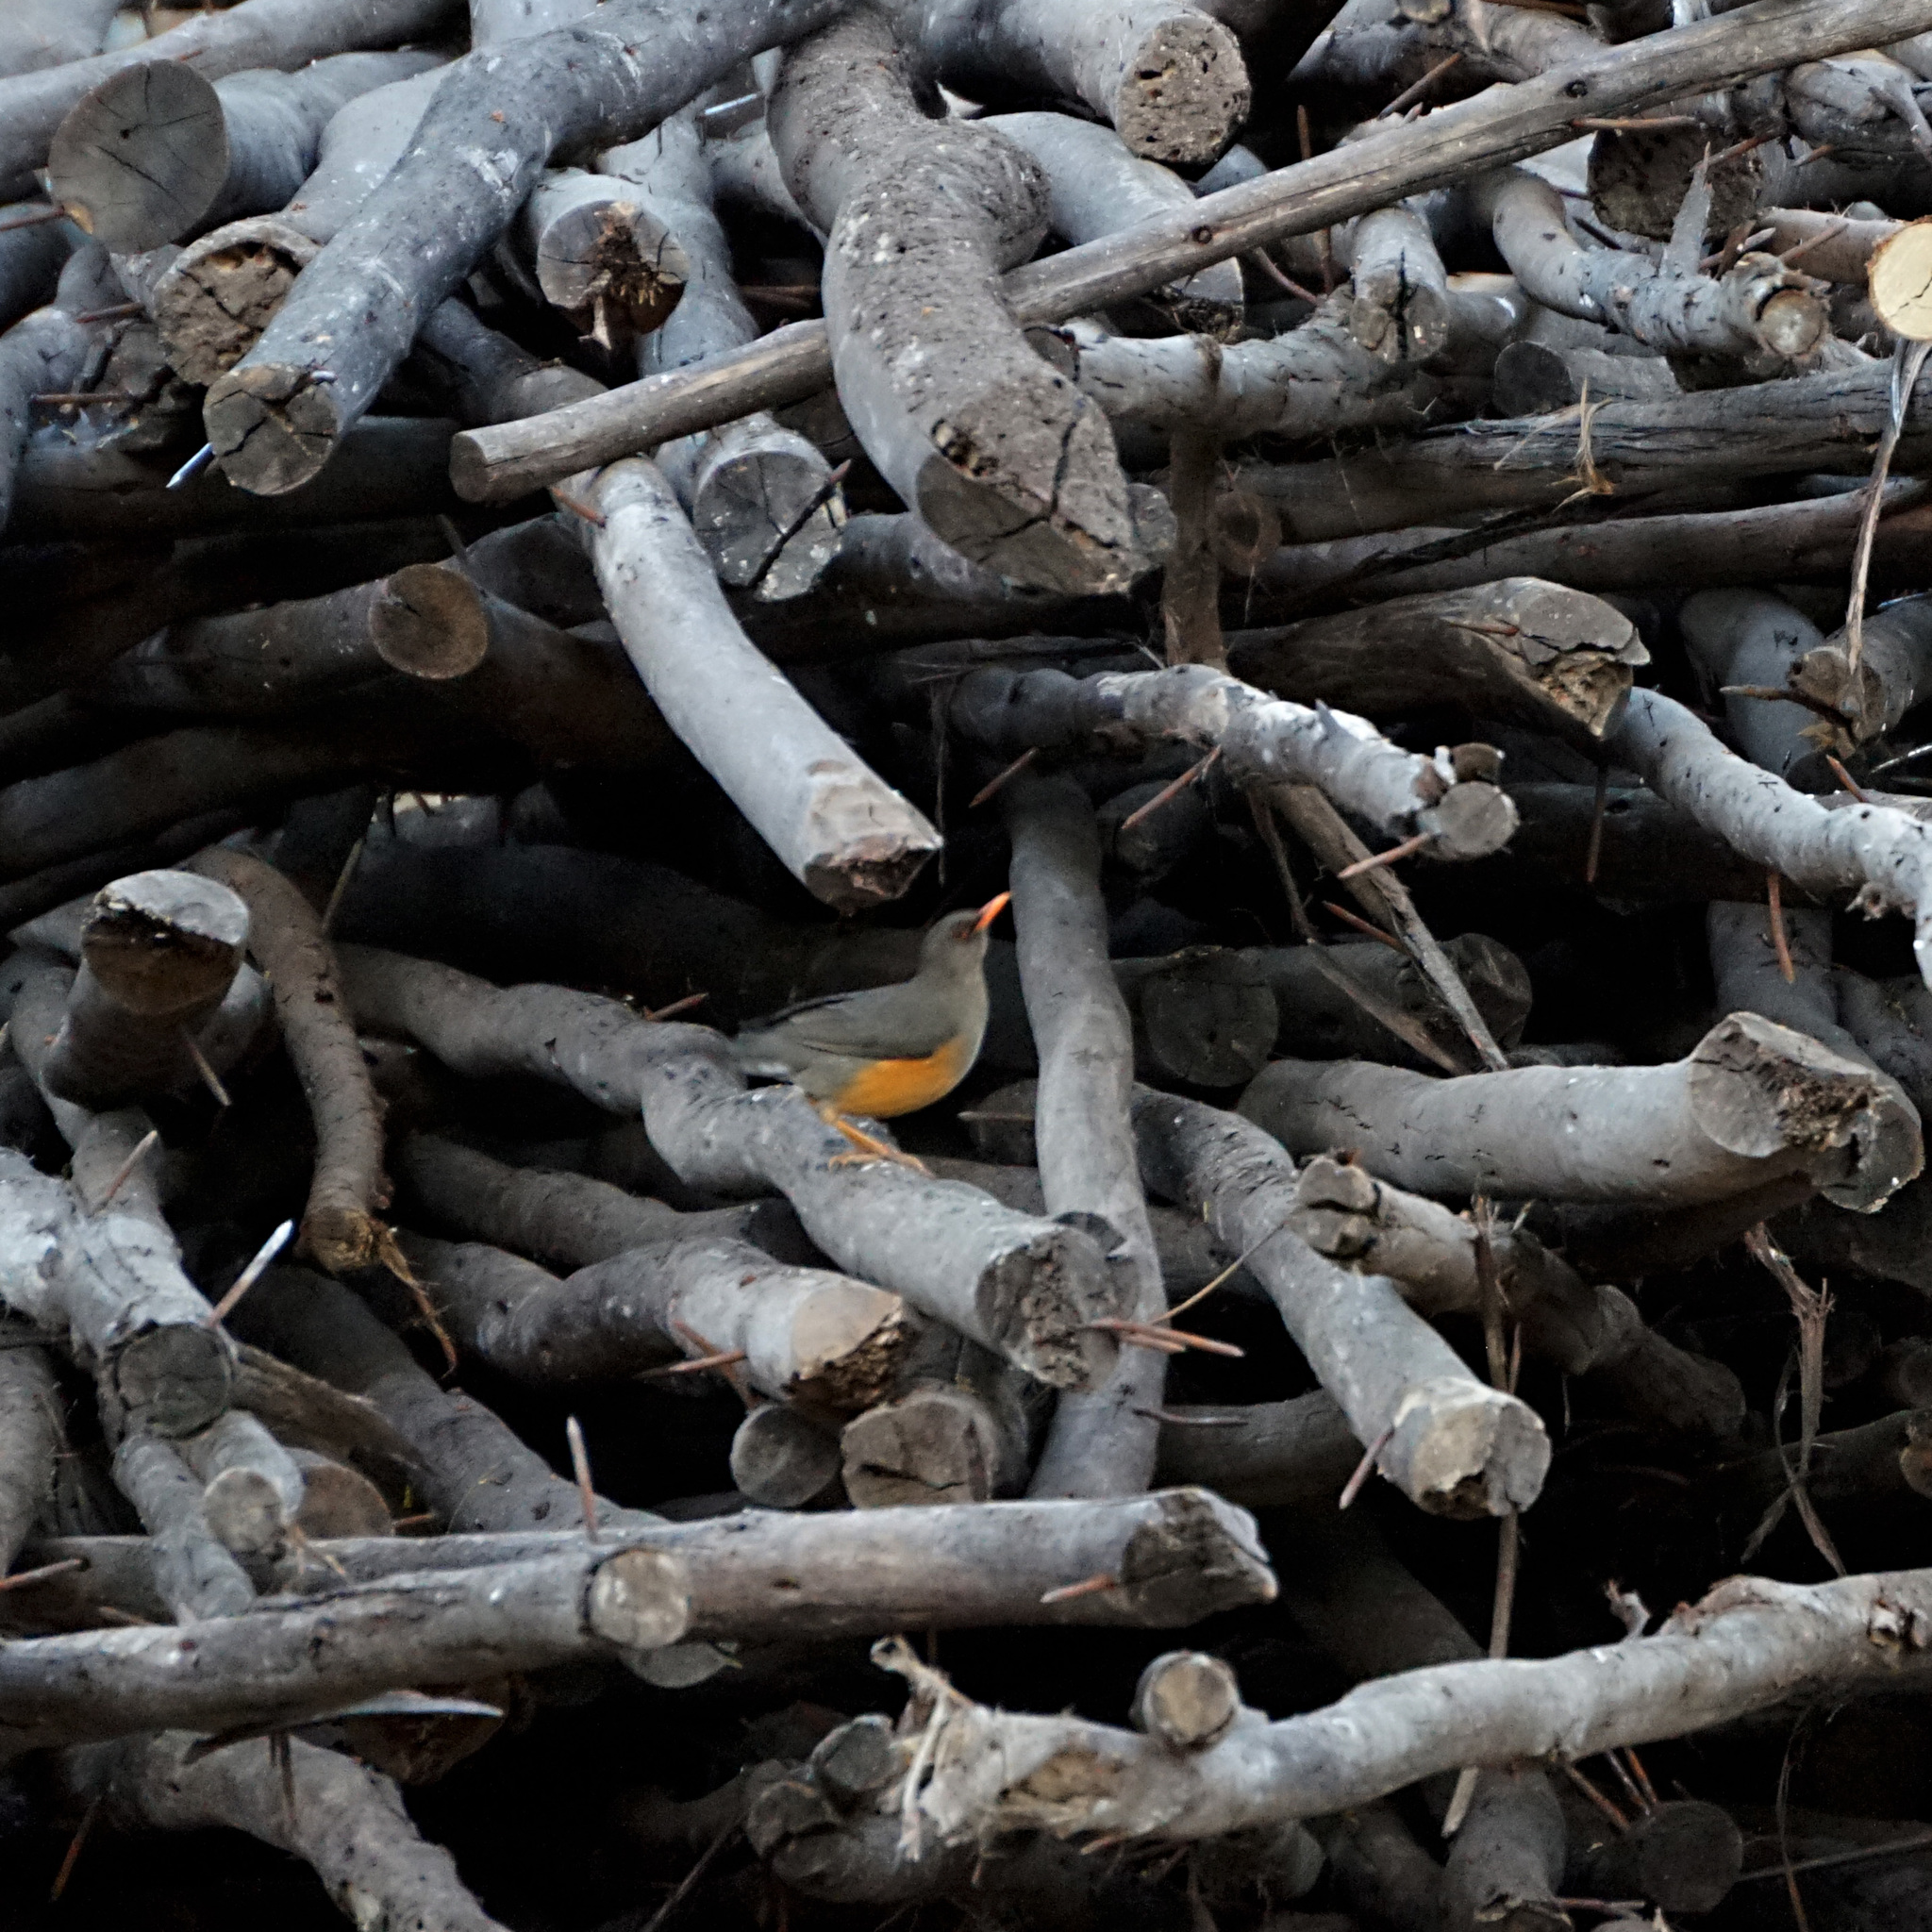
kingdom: Animalia
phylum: Chordata
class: Aves
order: Passeriformes
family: Turdidae
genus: Turdus
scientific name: Turdus abyssinicus
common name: Abyssinian thrush
